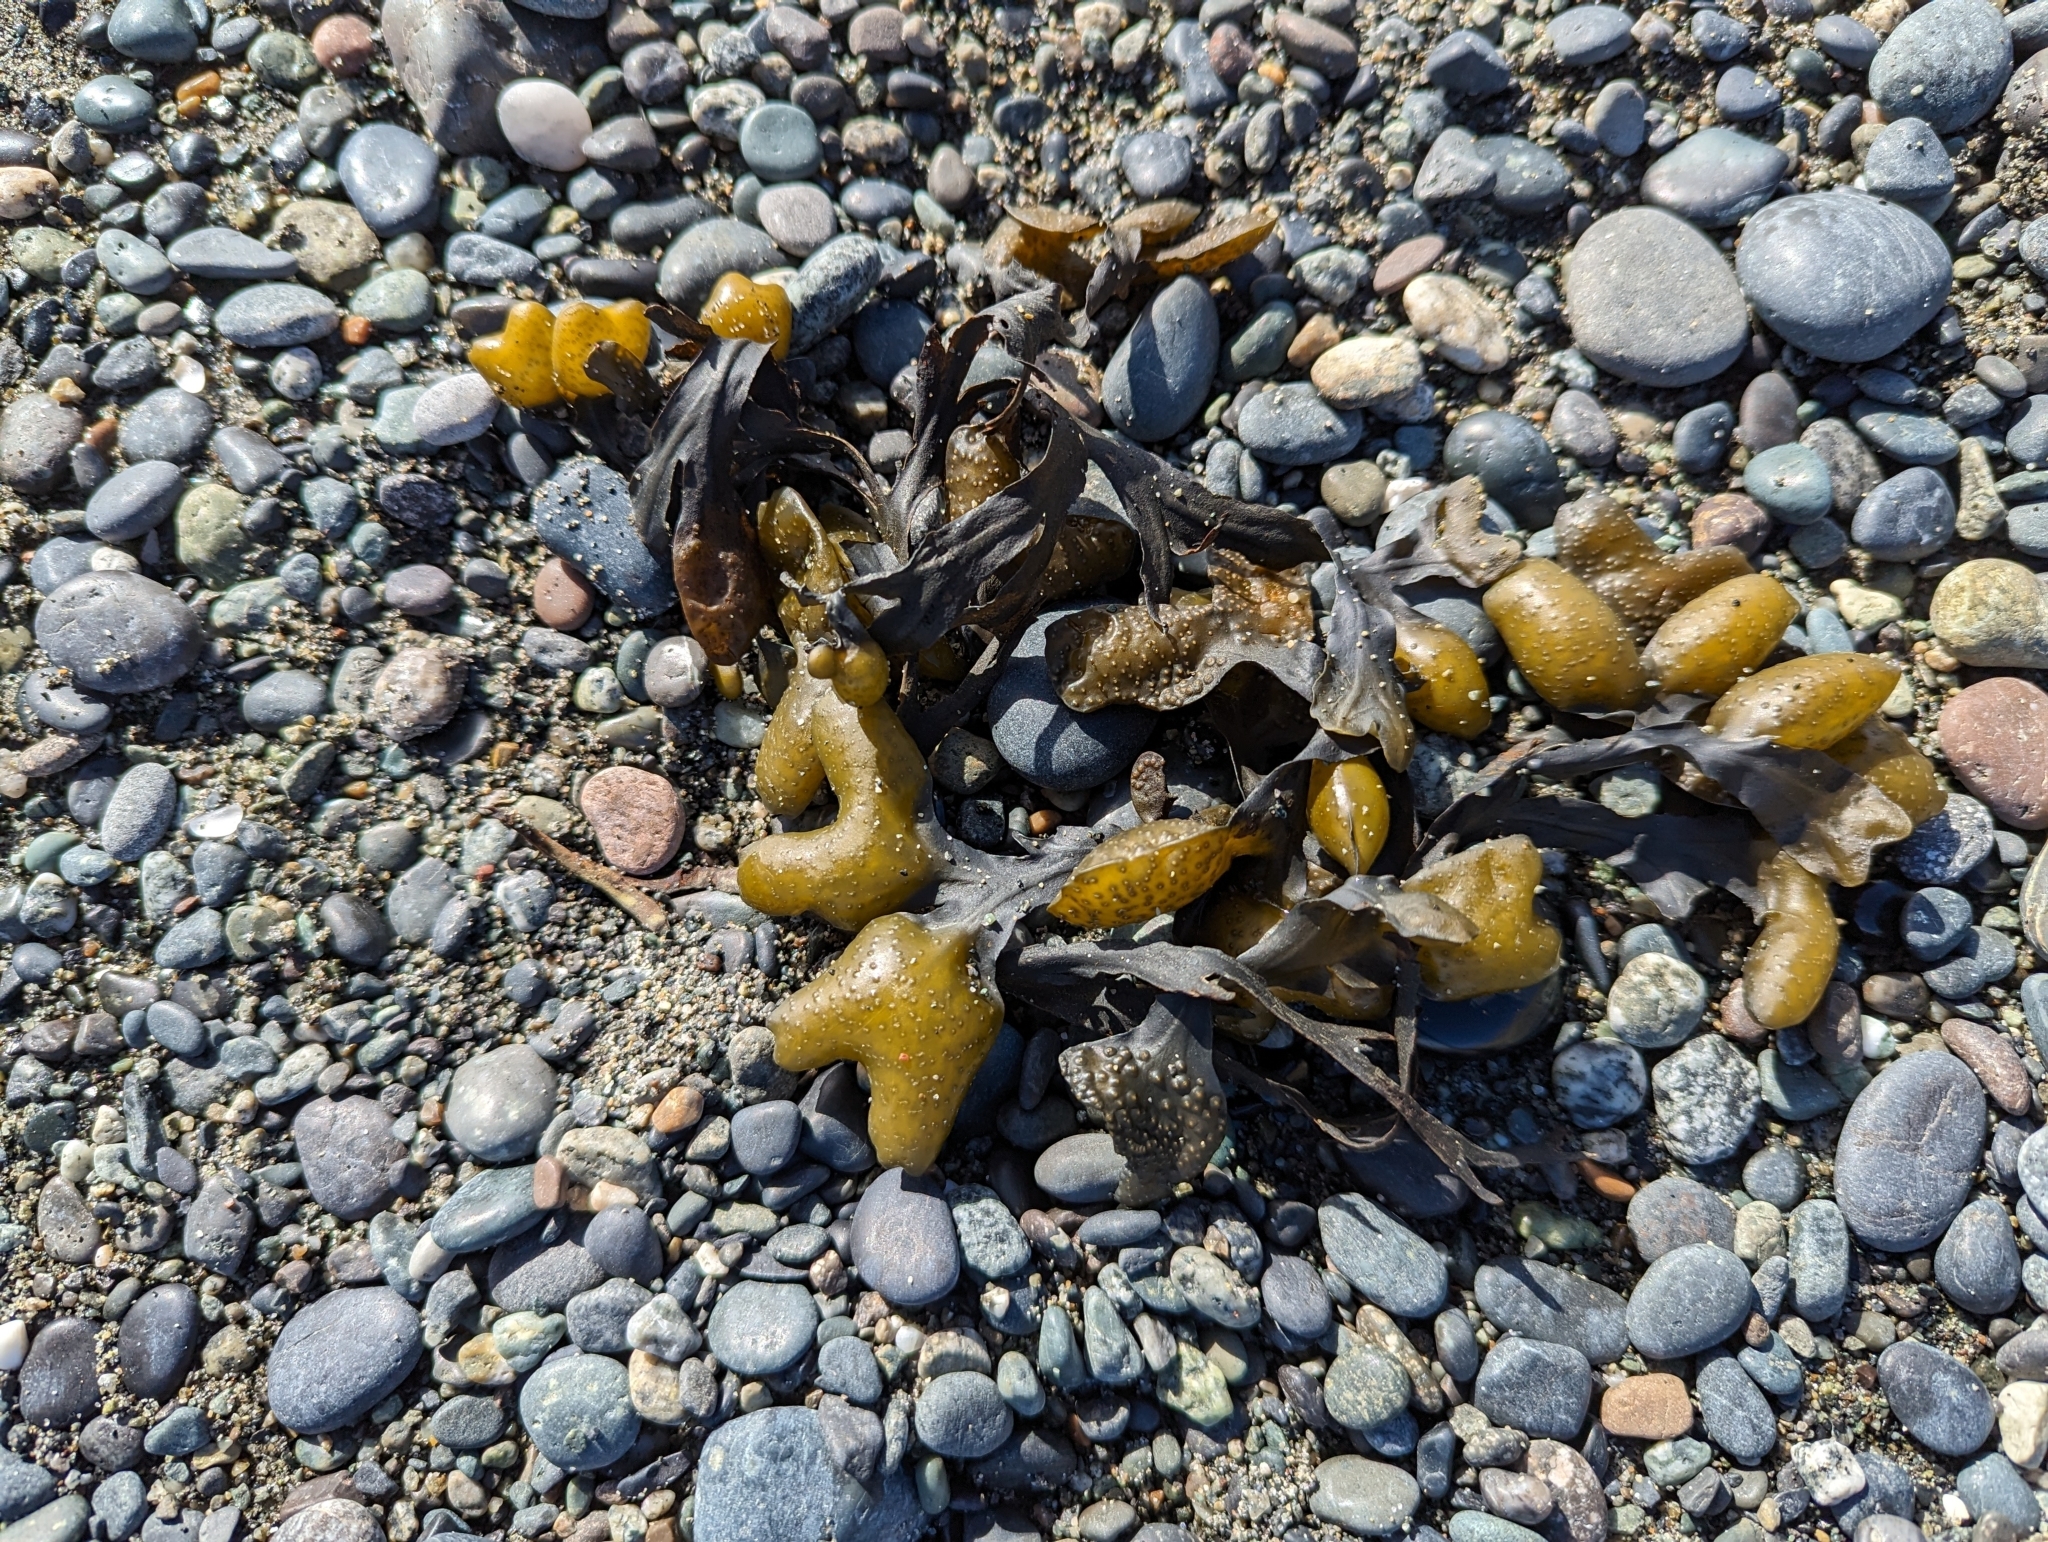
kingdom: Chromista
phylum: Ochrophyta
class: Phaeophyceae
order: Fucales
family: Fucaceae
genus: Fucus
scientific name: Fucus distichus
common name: Rockweed
